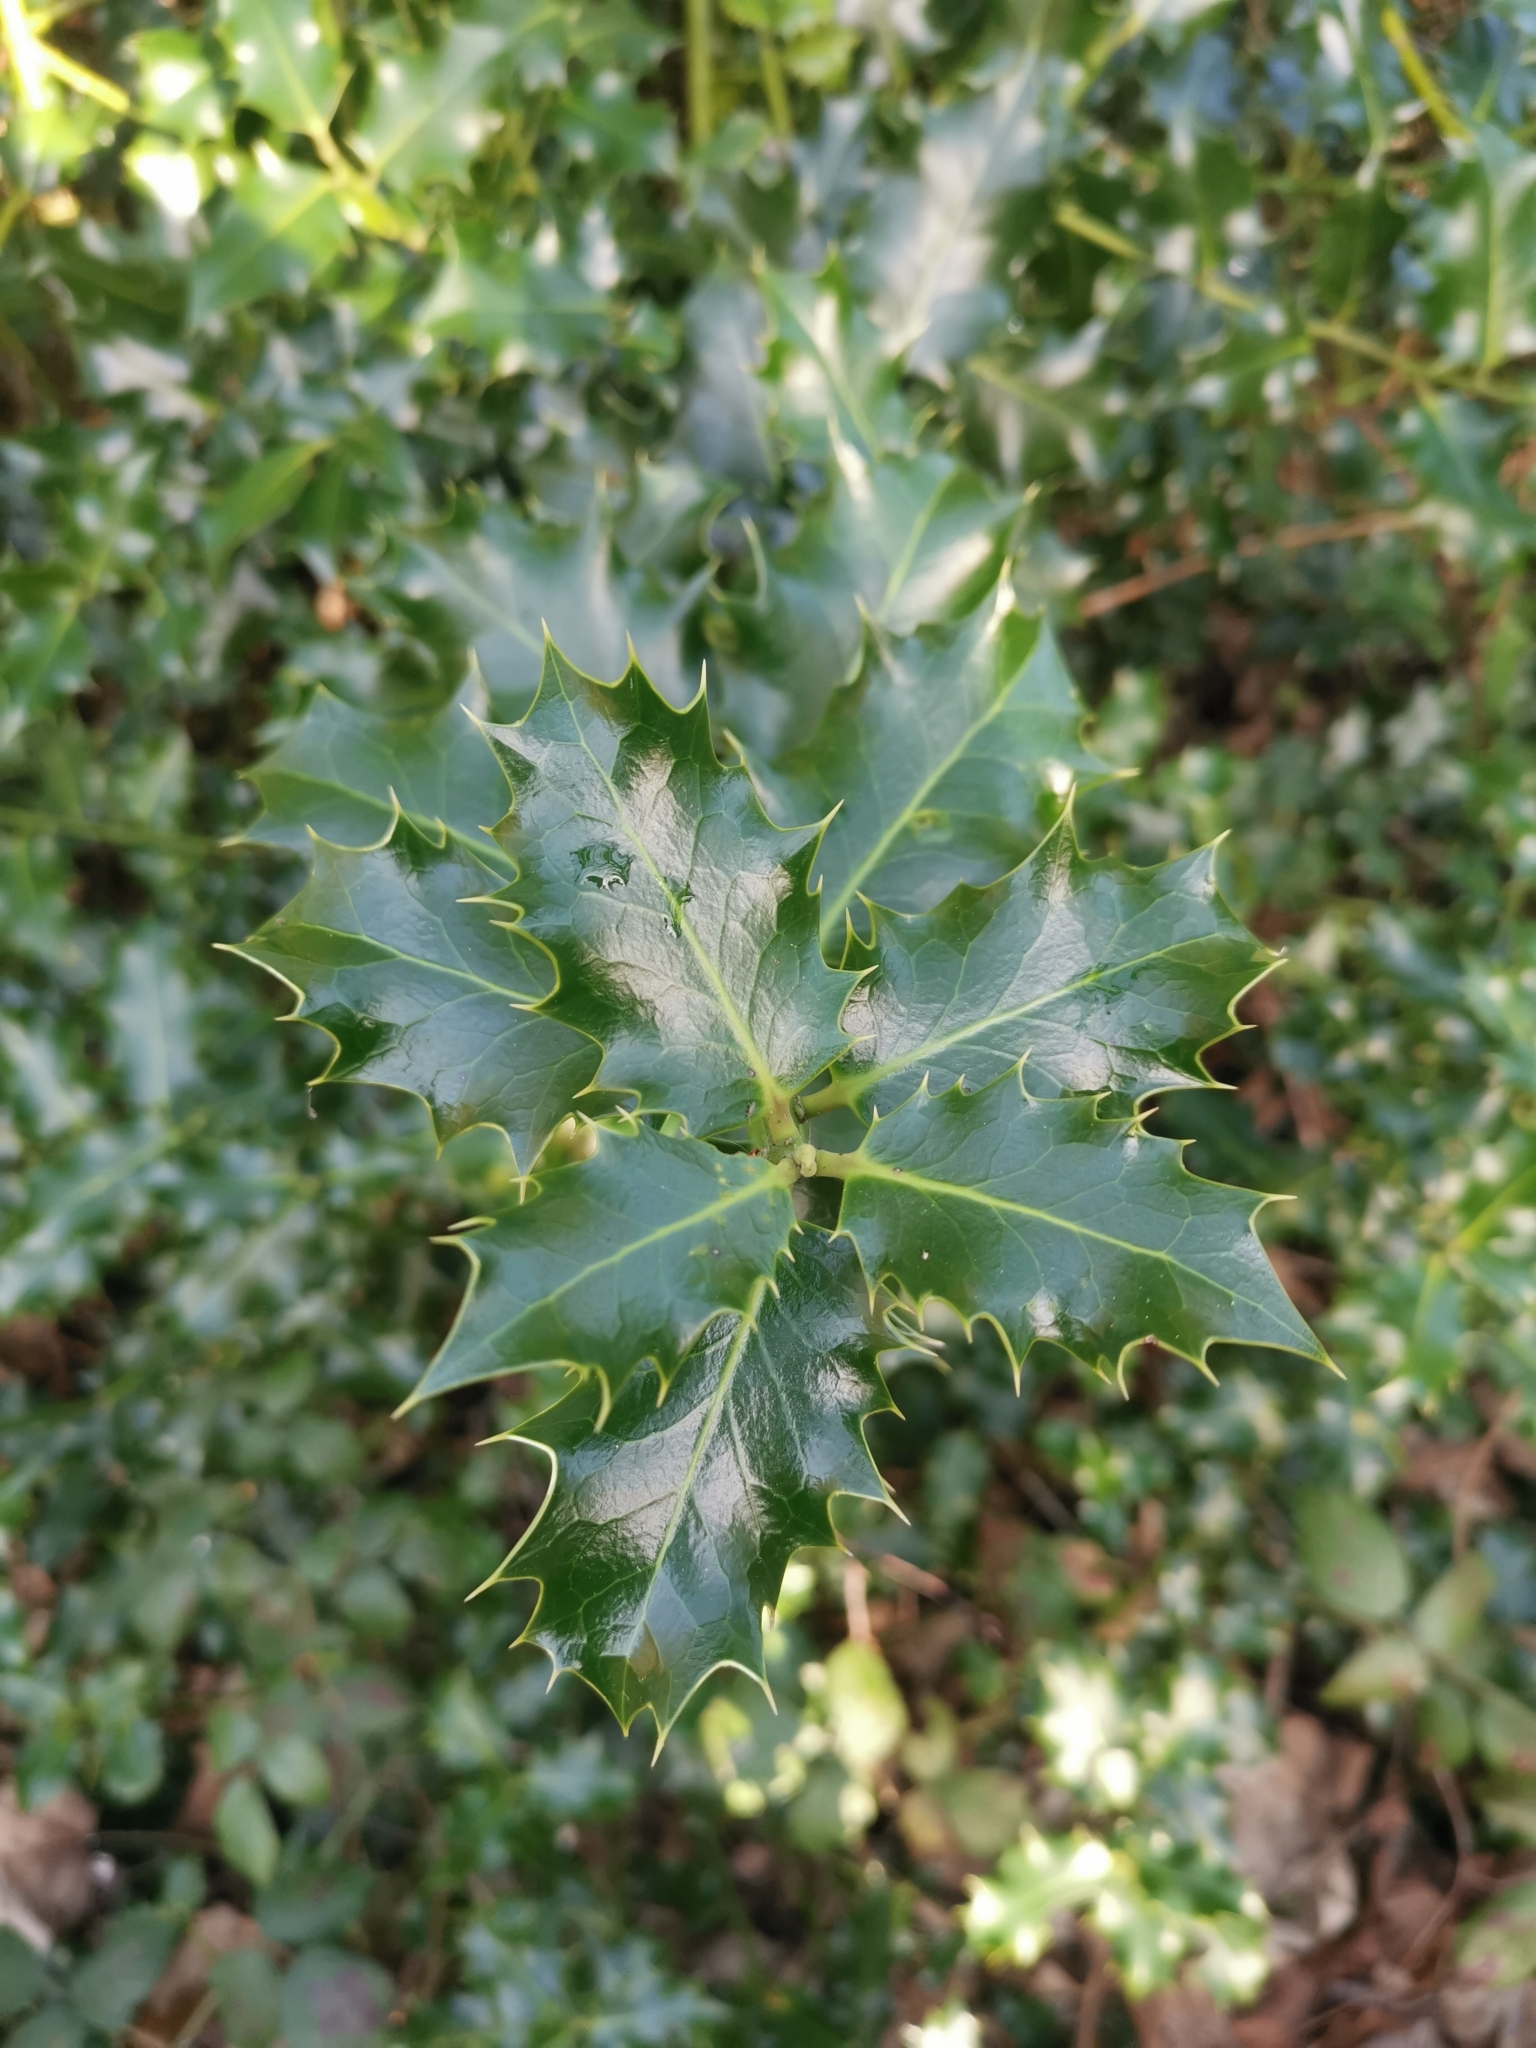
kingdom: Plantae
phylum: Tracheophyta
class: Magnoliopsida
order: Aquifoliales
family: Aquifoliaceae
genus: Ilex
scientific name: Ilex aquifolium
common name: English holly
